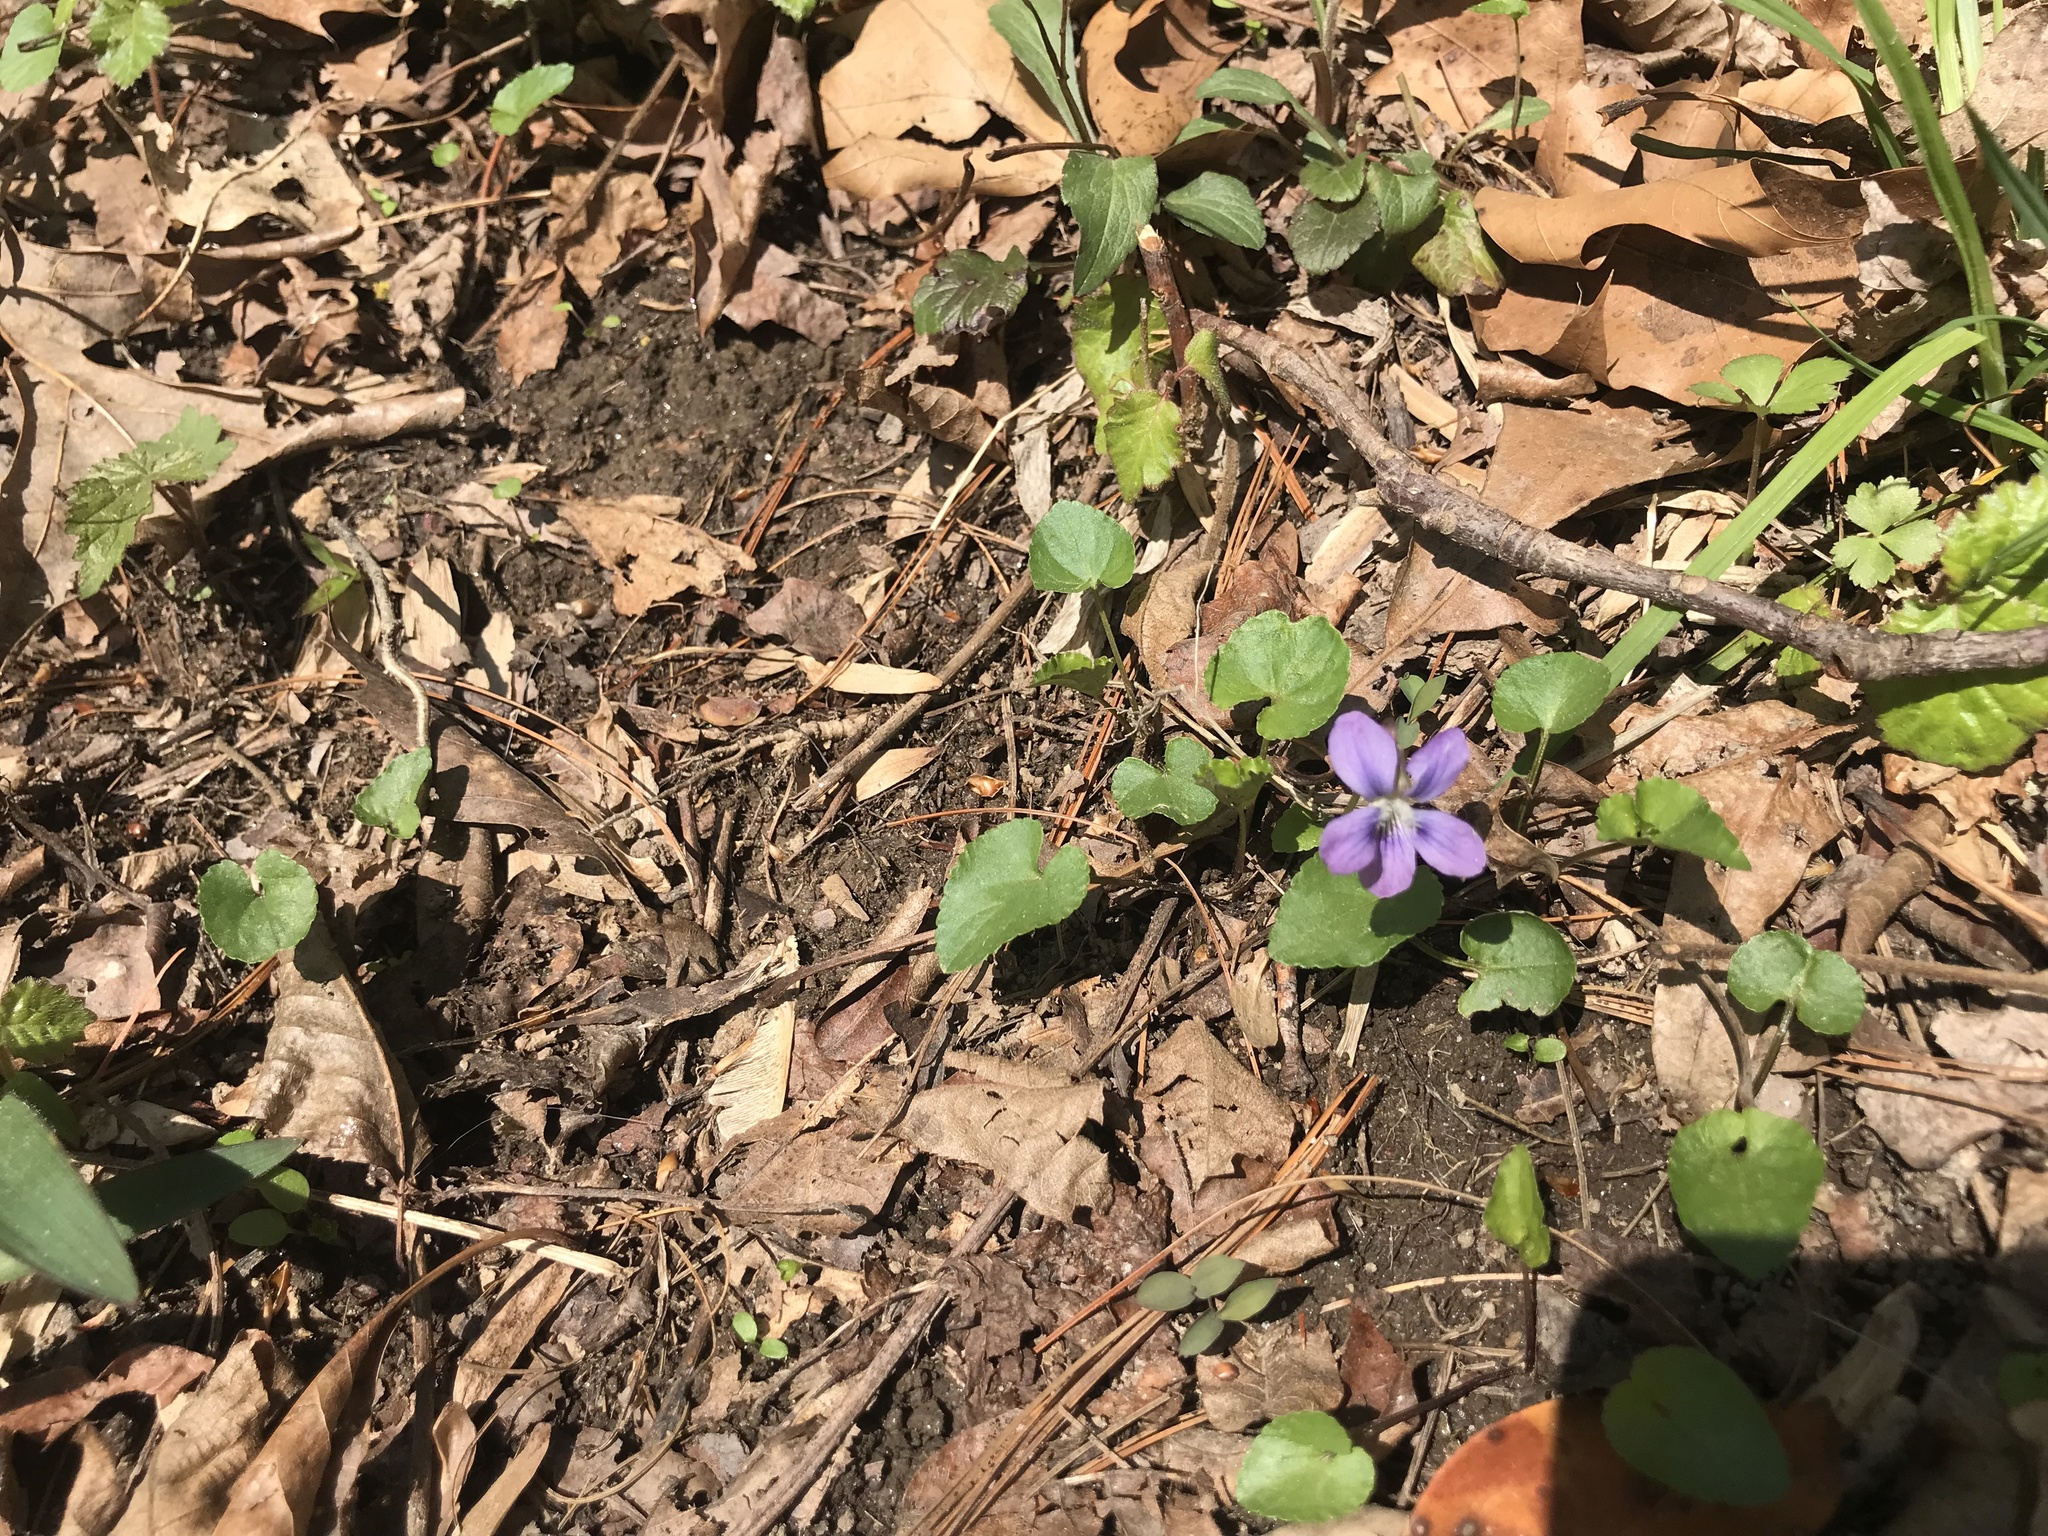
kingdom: Plantae
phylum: Tracheophyta
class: Magnoliopsida
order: Malpighiales
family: Violaceae
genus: Viola
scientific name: Viola sororia
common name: Dooryard violet
